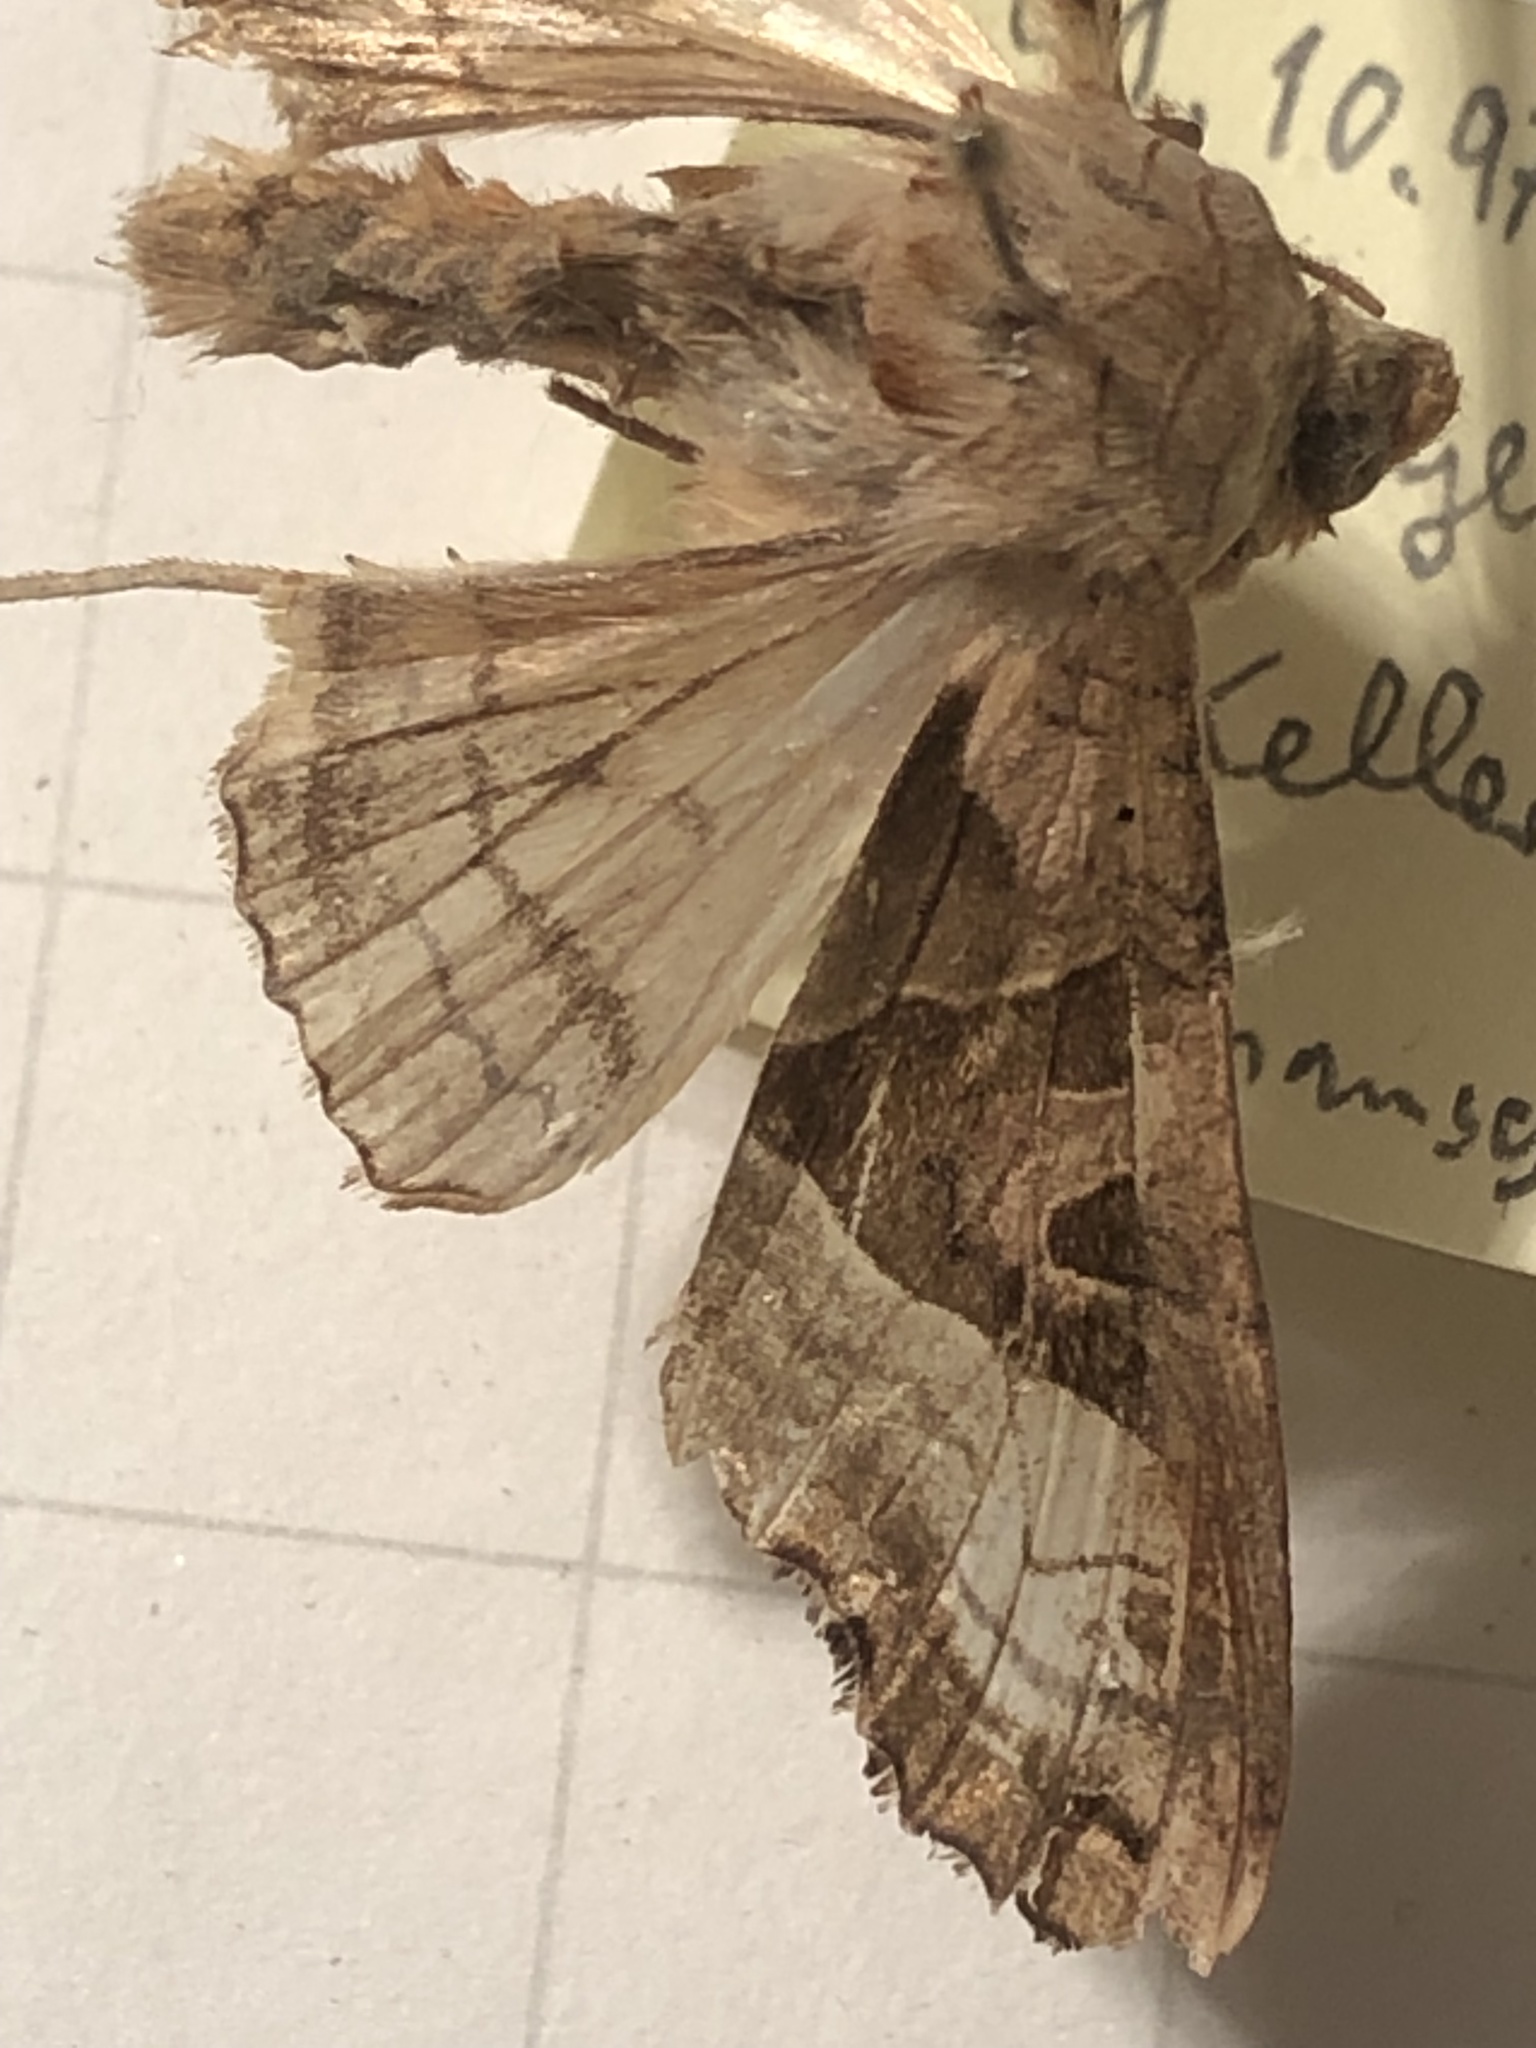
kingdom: Animalia
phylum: Arthropoda
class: Insecta
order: Lepidoptera
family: Noctuidae
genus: Phlogophora
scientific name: Phlogophora meticulosa
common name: Angle shades
